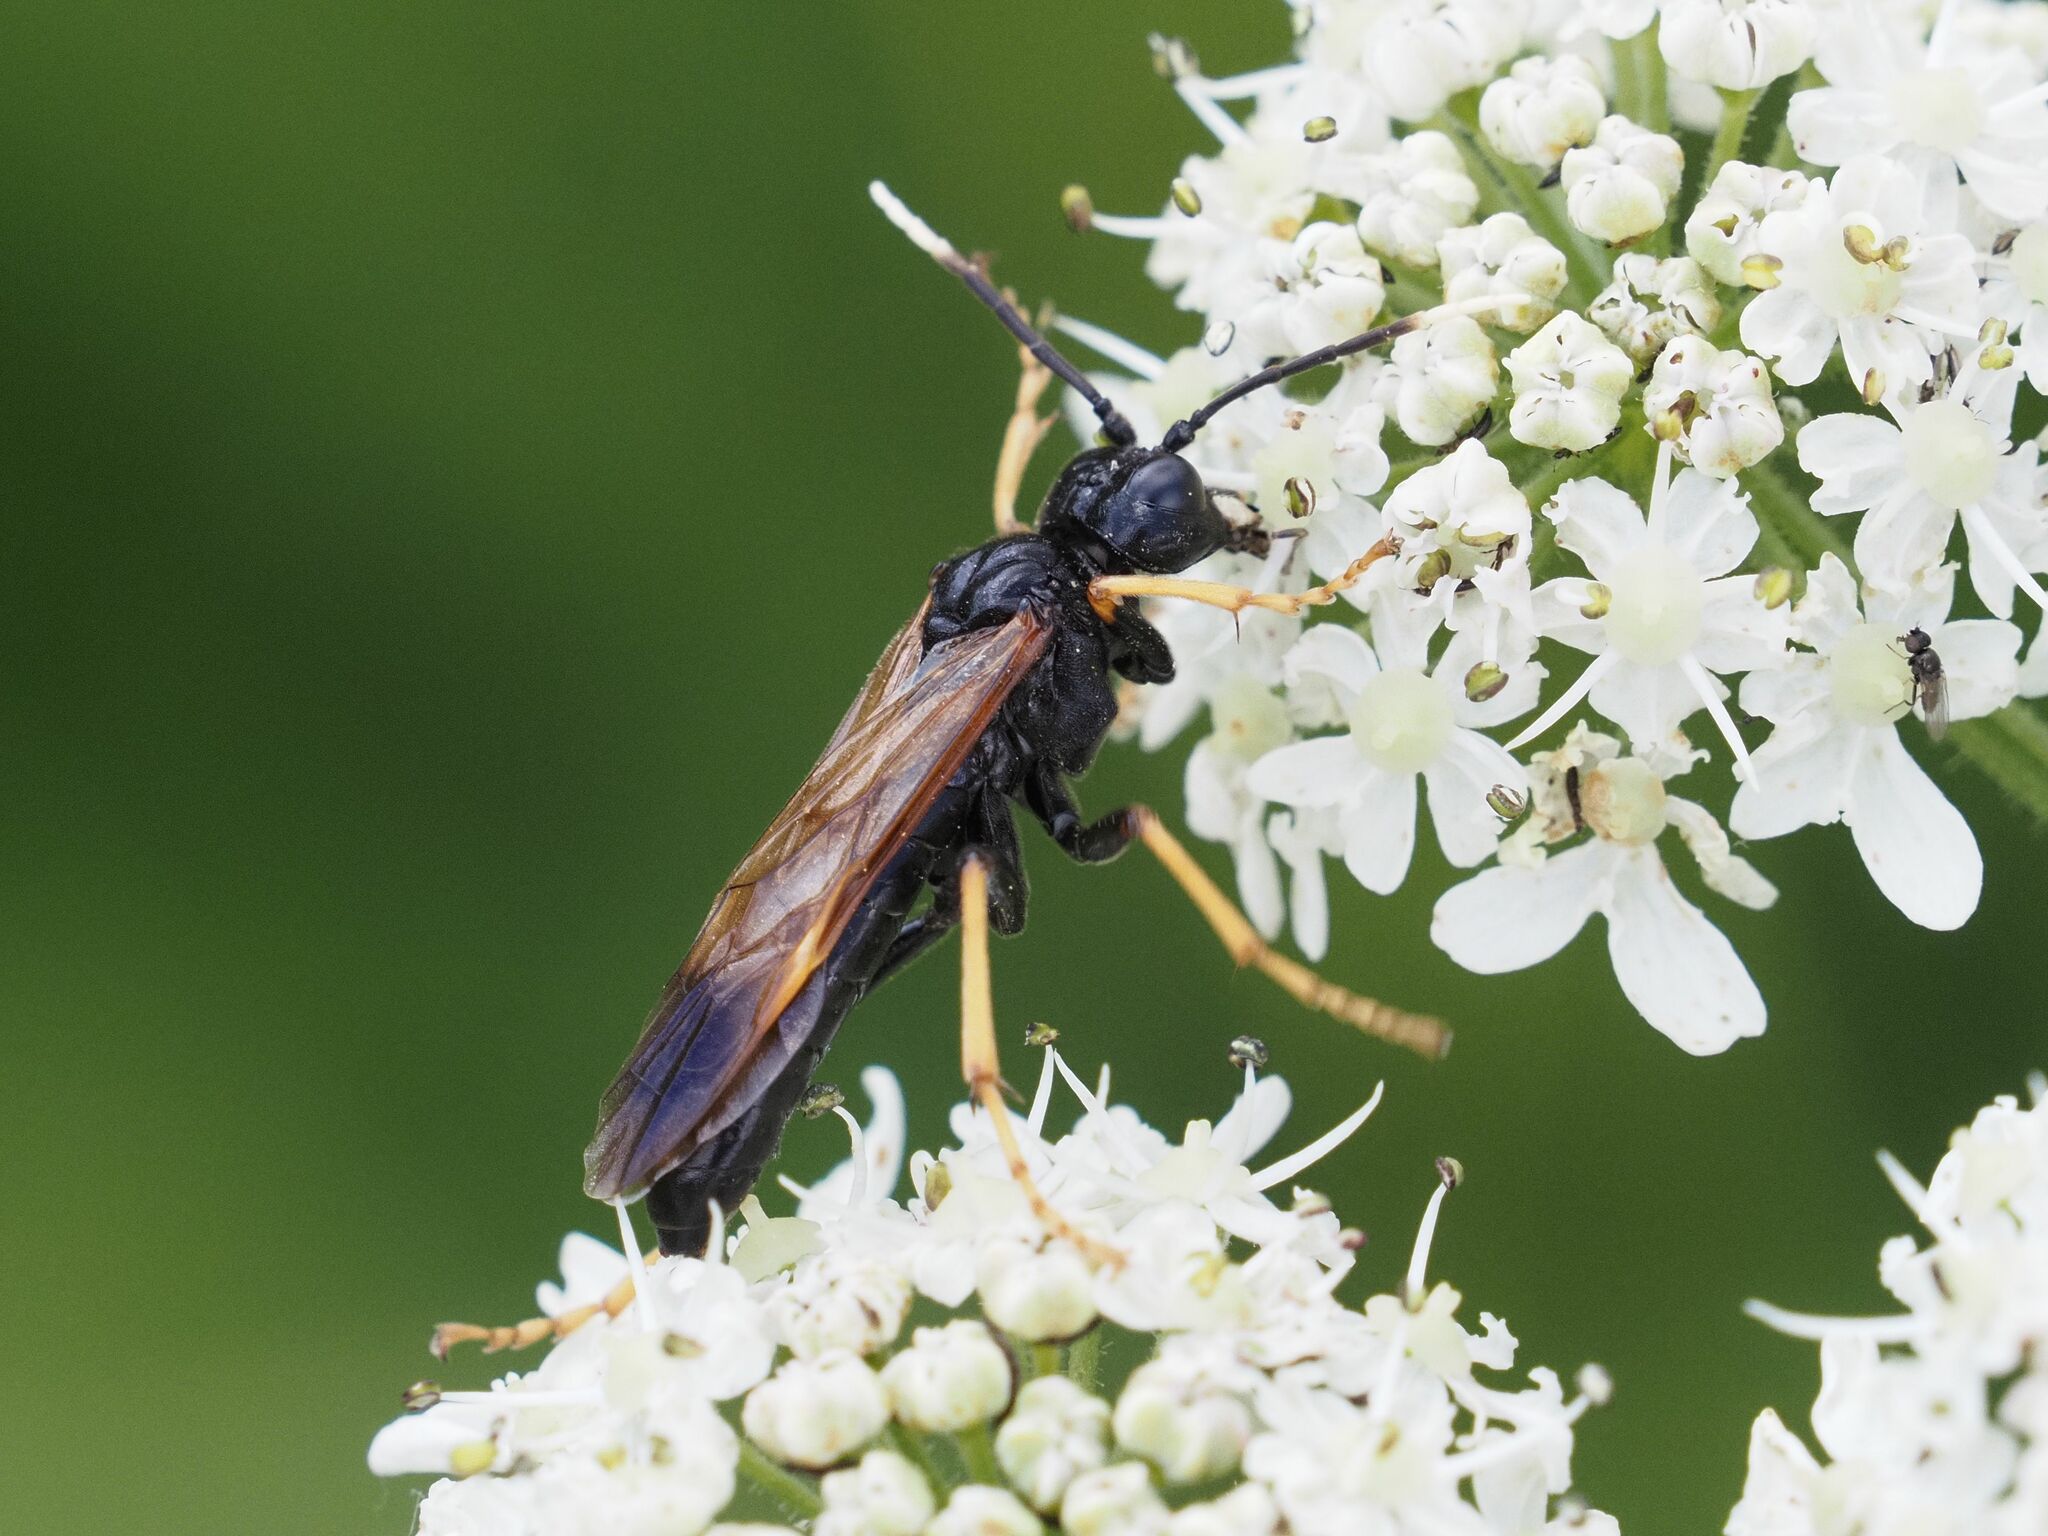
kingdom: Animalia
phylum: Arthropoda
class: Insecta
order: Hymenoptera
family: Tenthredinidae
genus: Tenthredo
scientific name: Tenthredo crassa
